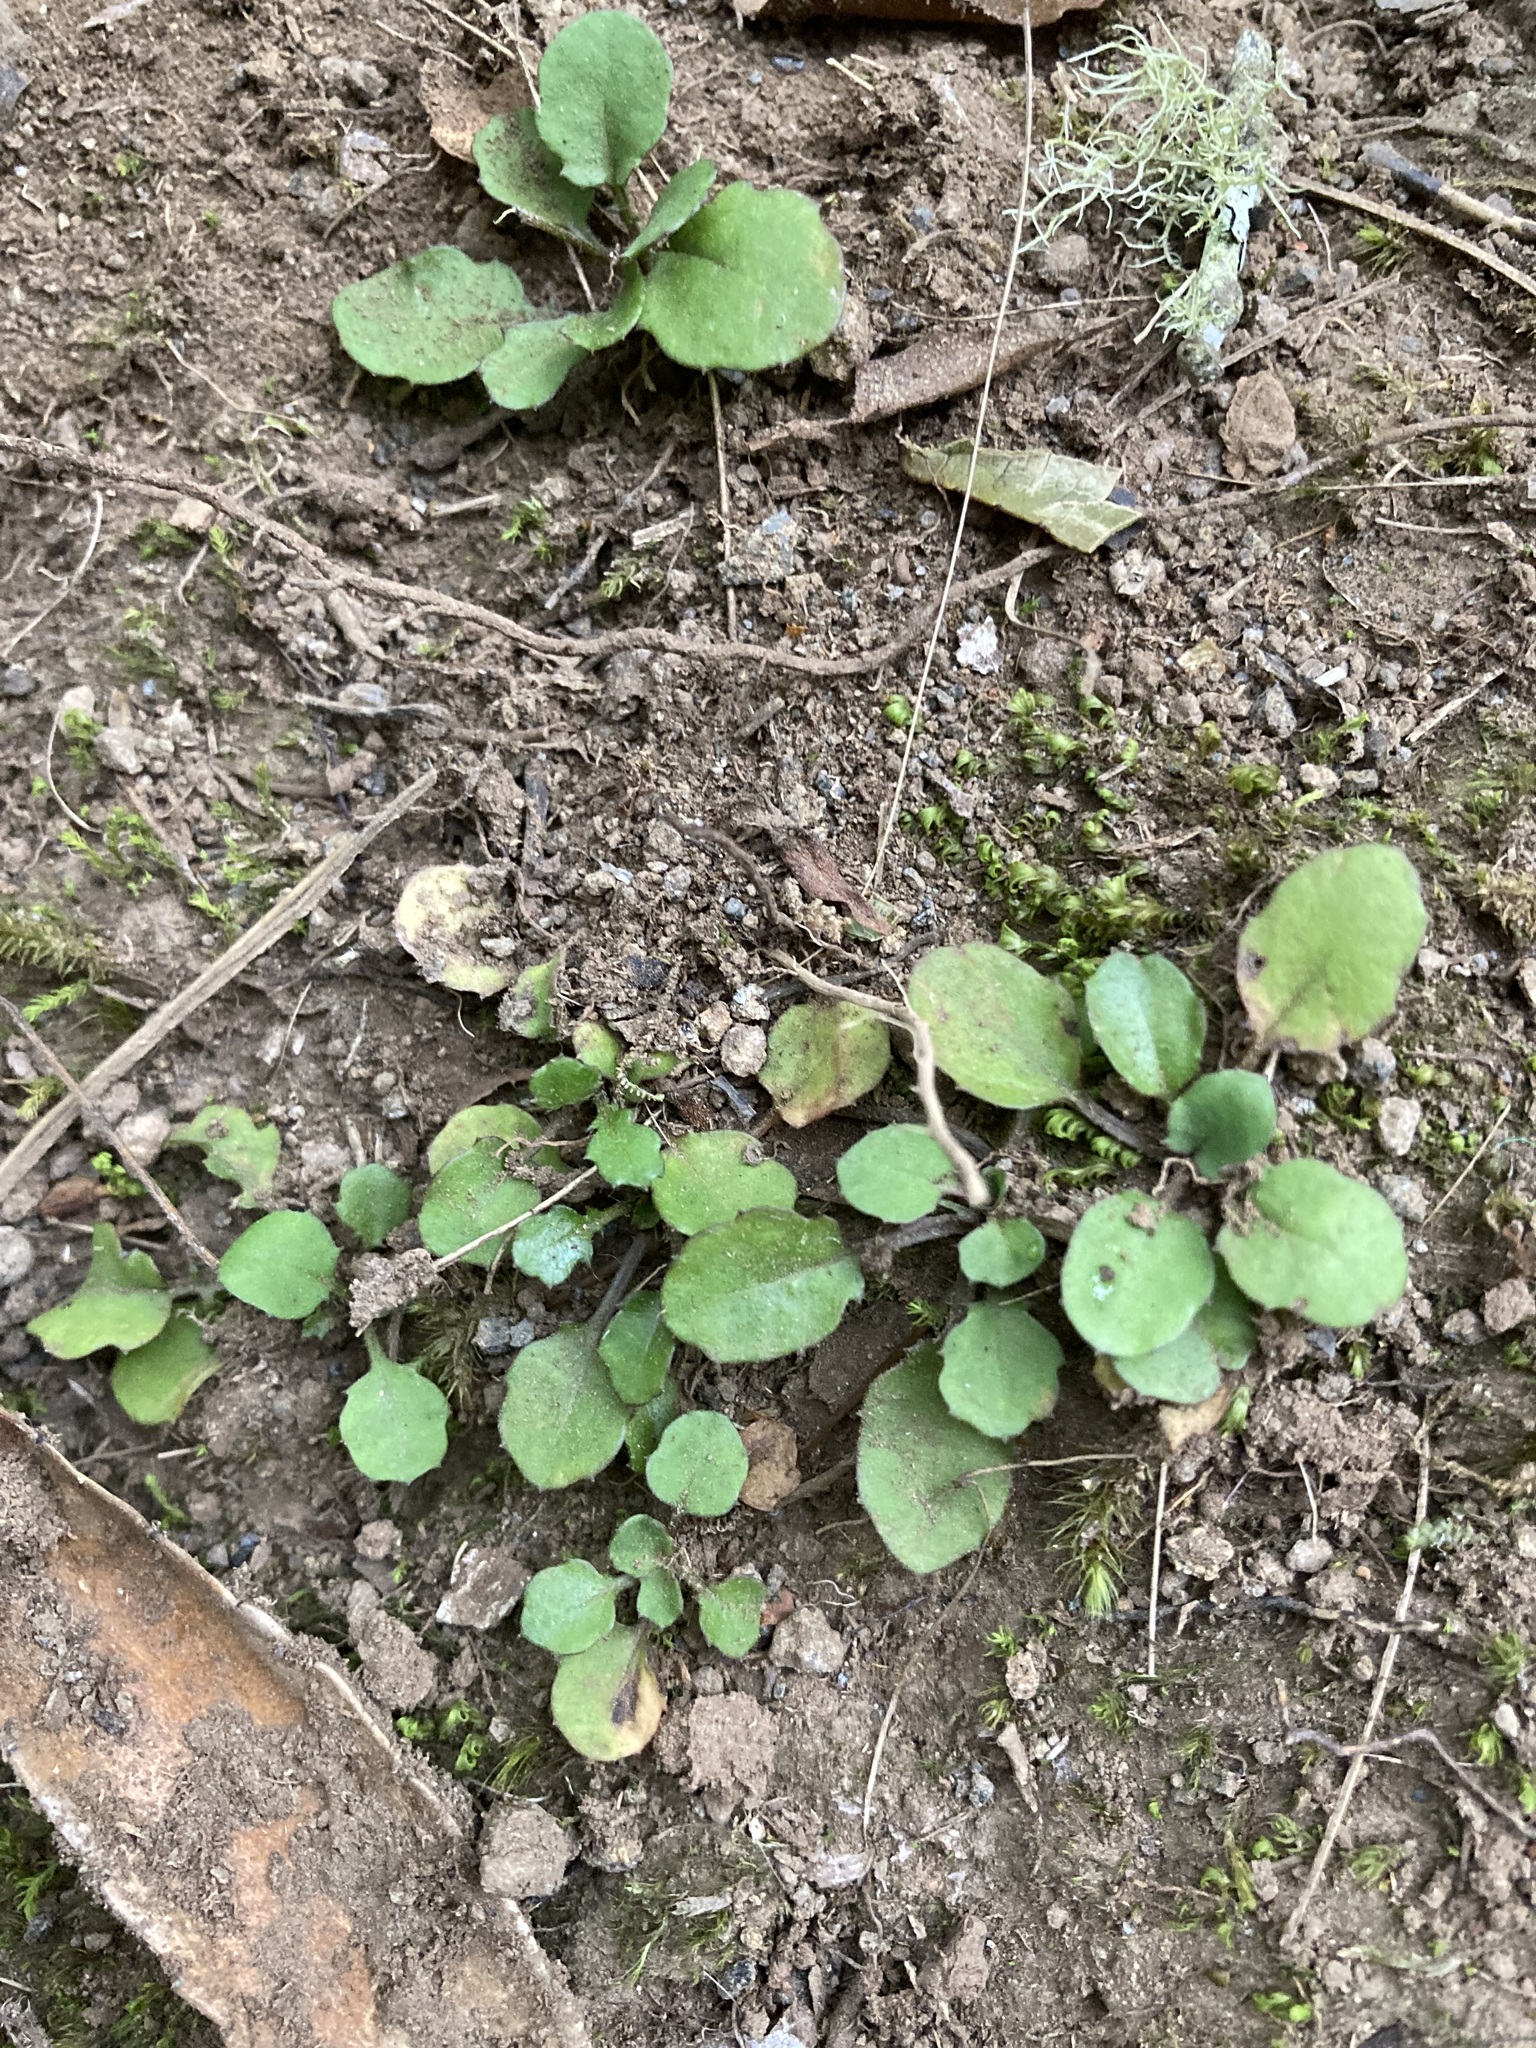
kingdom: Plantae
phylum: Tracheophyta
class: Magnoliopsida
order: Asterales
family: Asteraceae
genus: Lagenophora
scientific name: Lagenophora pumila
